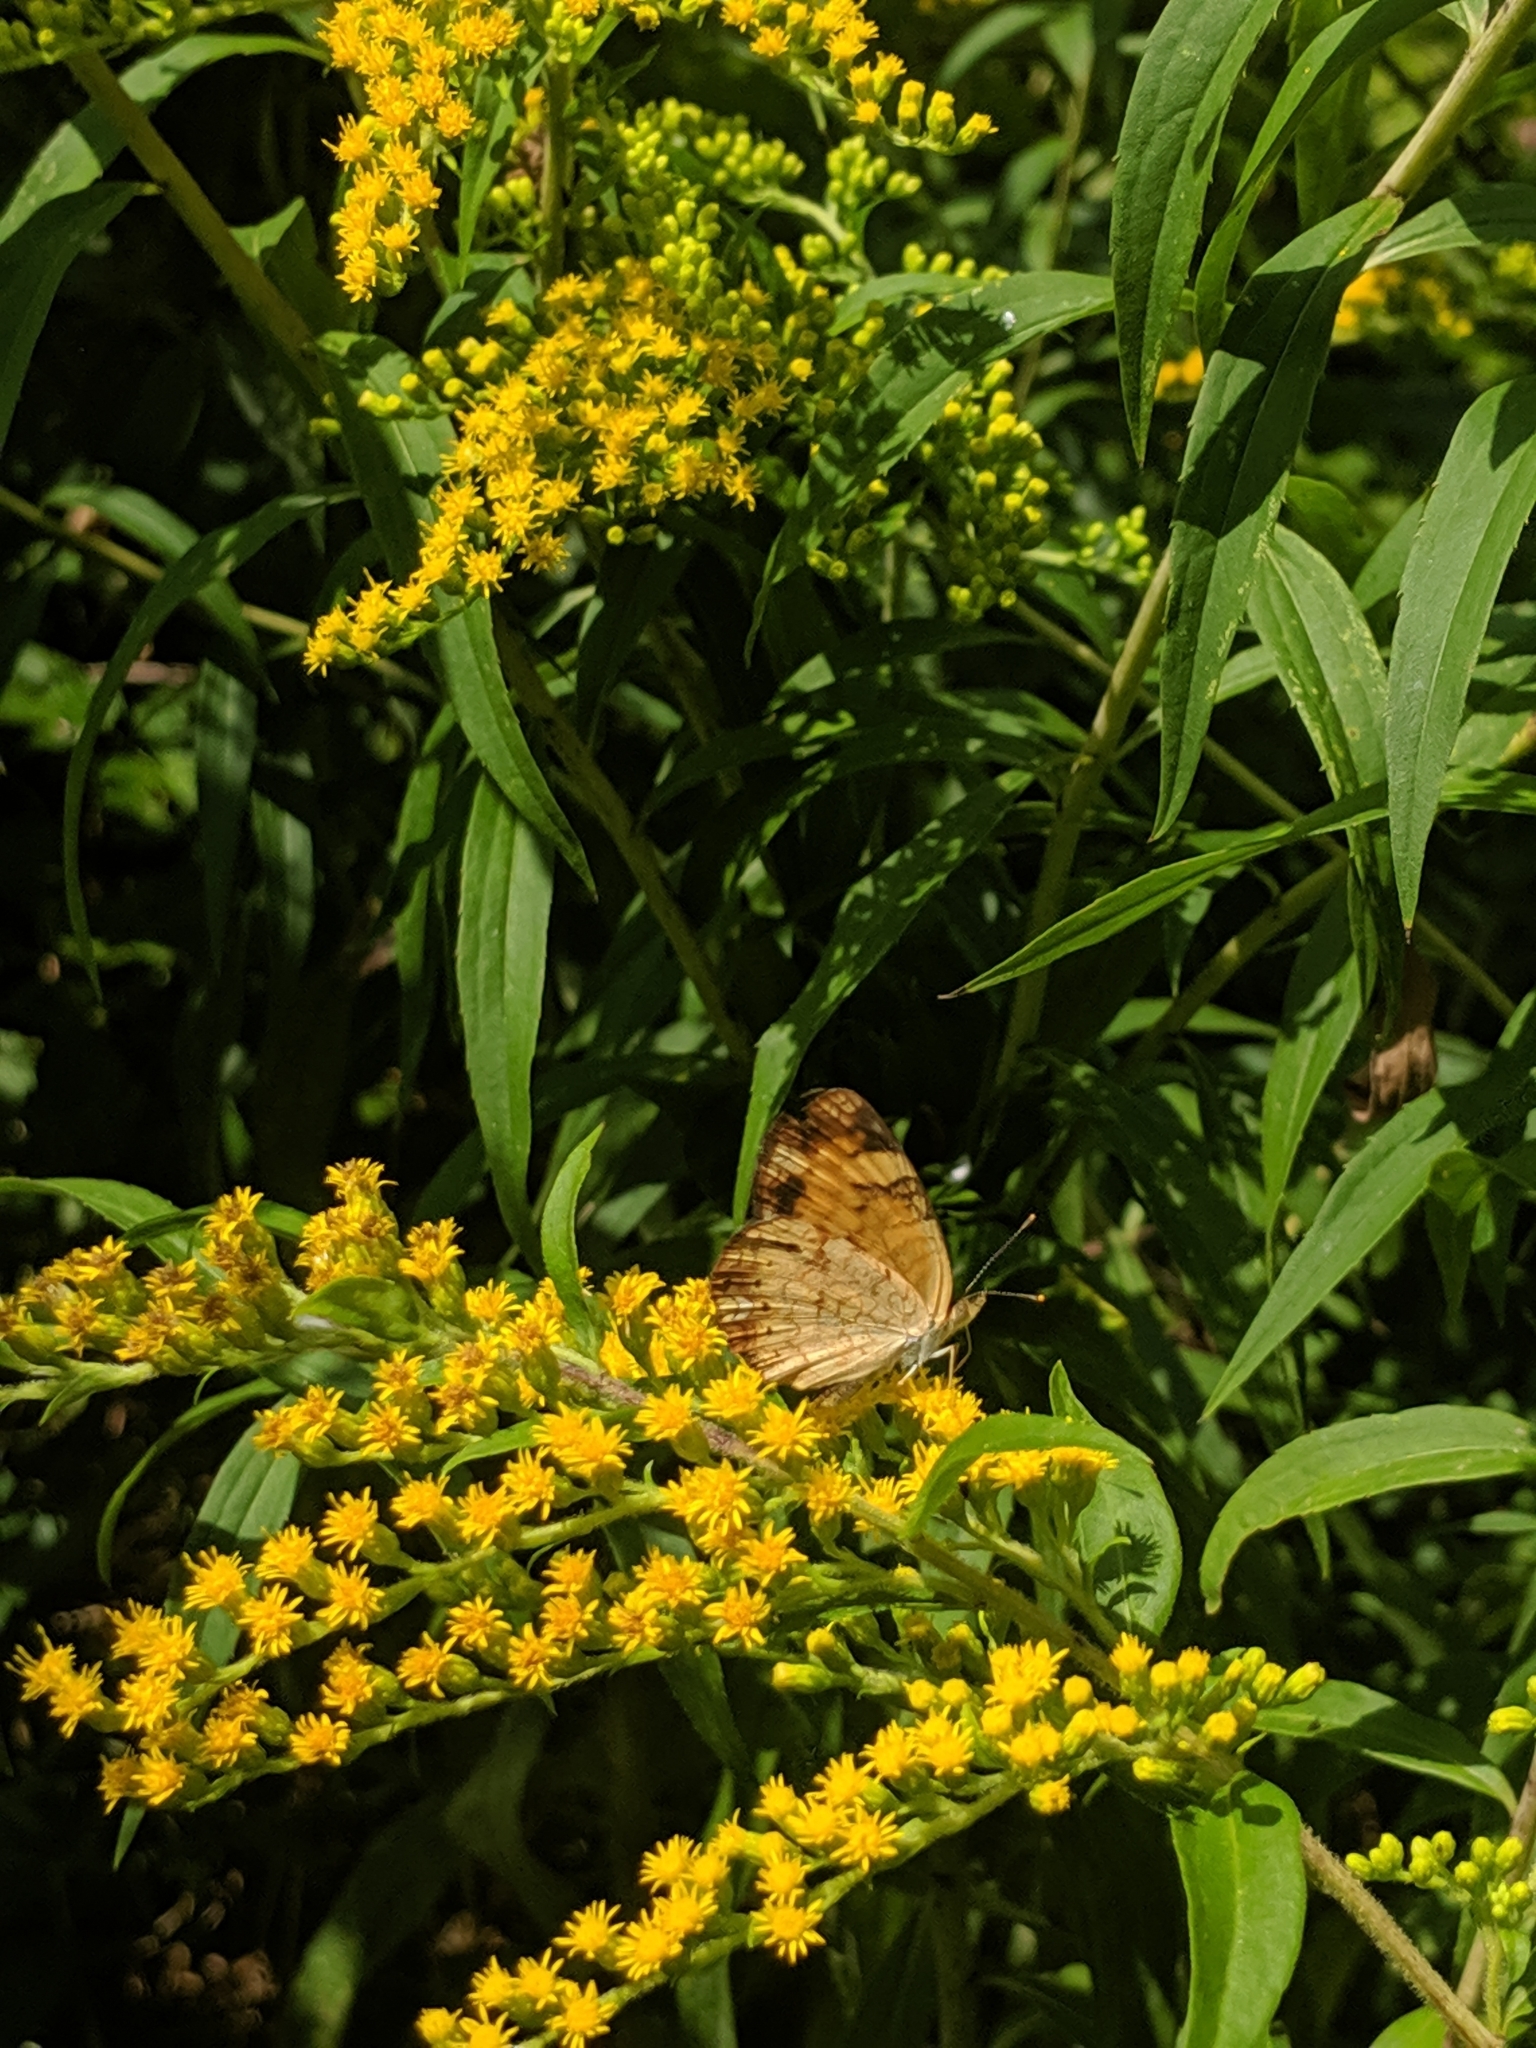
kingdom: Animalia
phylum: Arthropoda
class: Insecta
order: Lepidoptera
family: Nymphalidae
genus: Phyciodes
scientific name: Phyciodes tharos
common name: Pearl crescent
